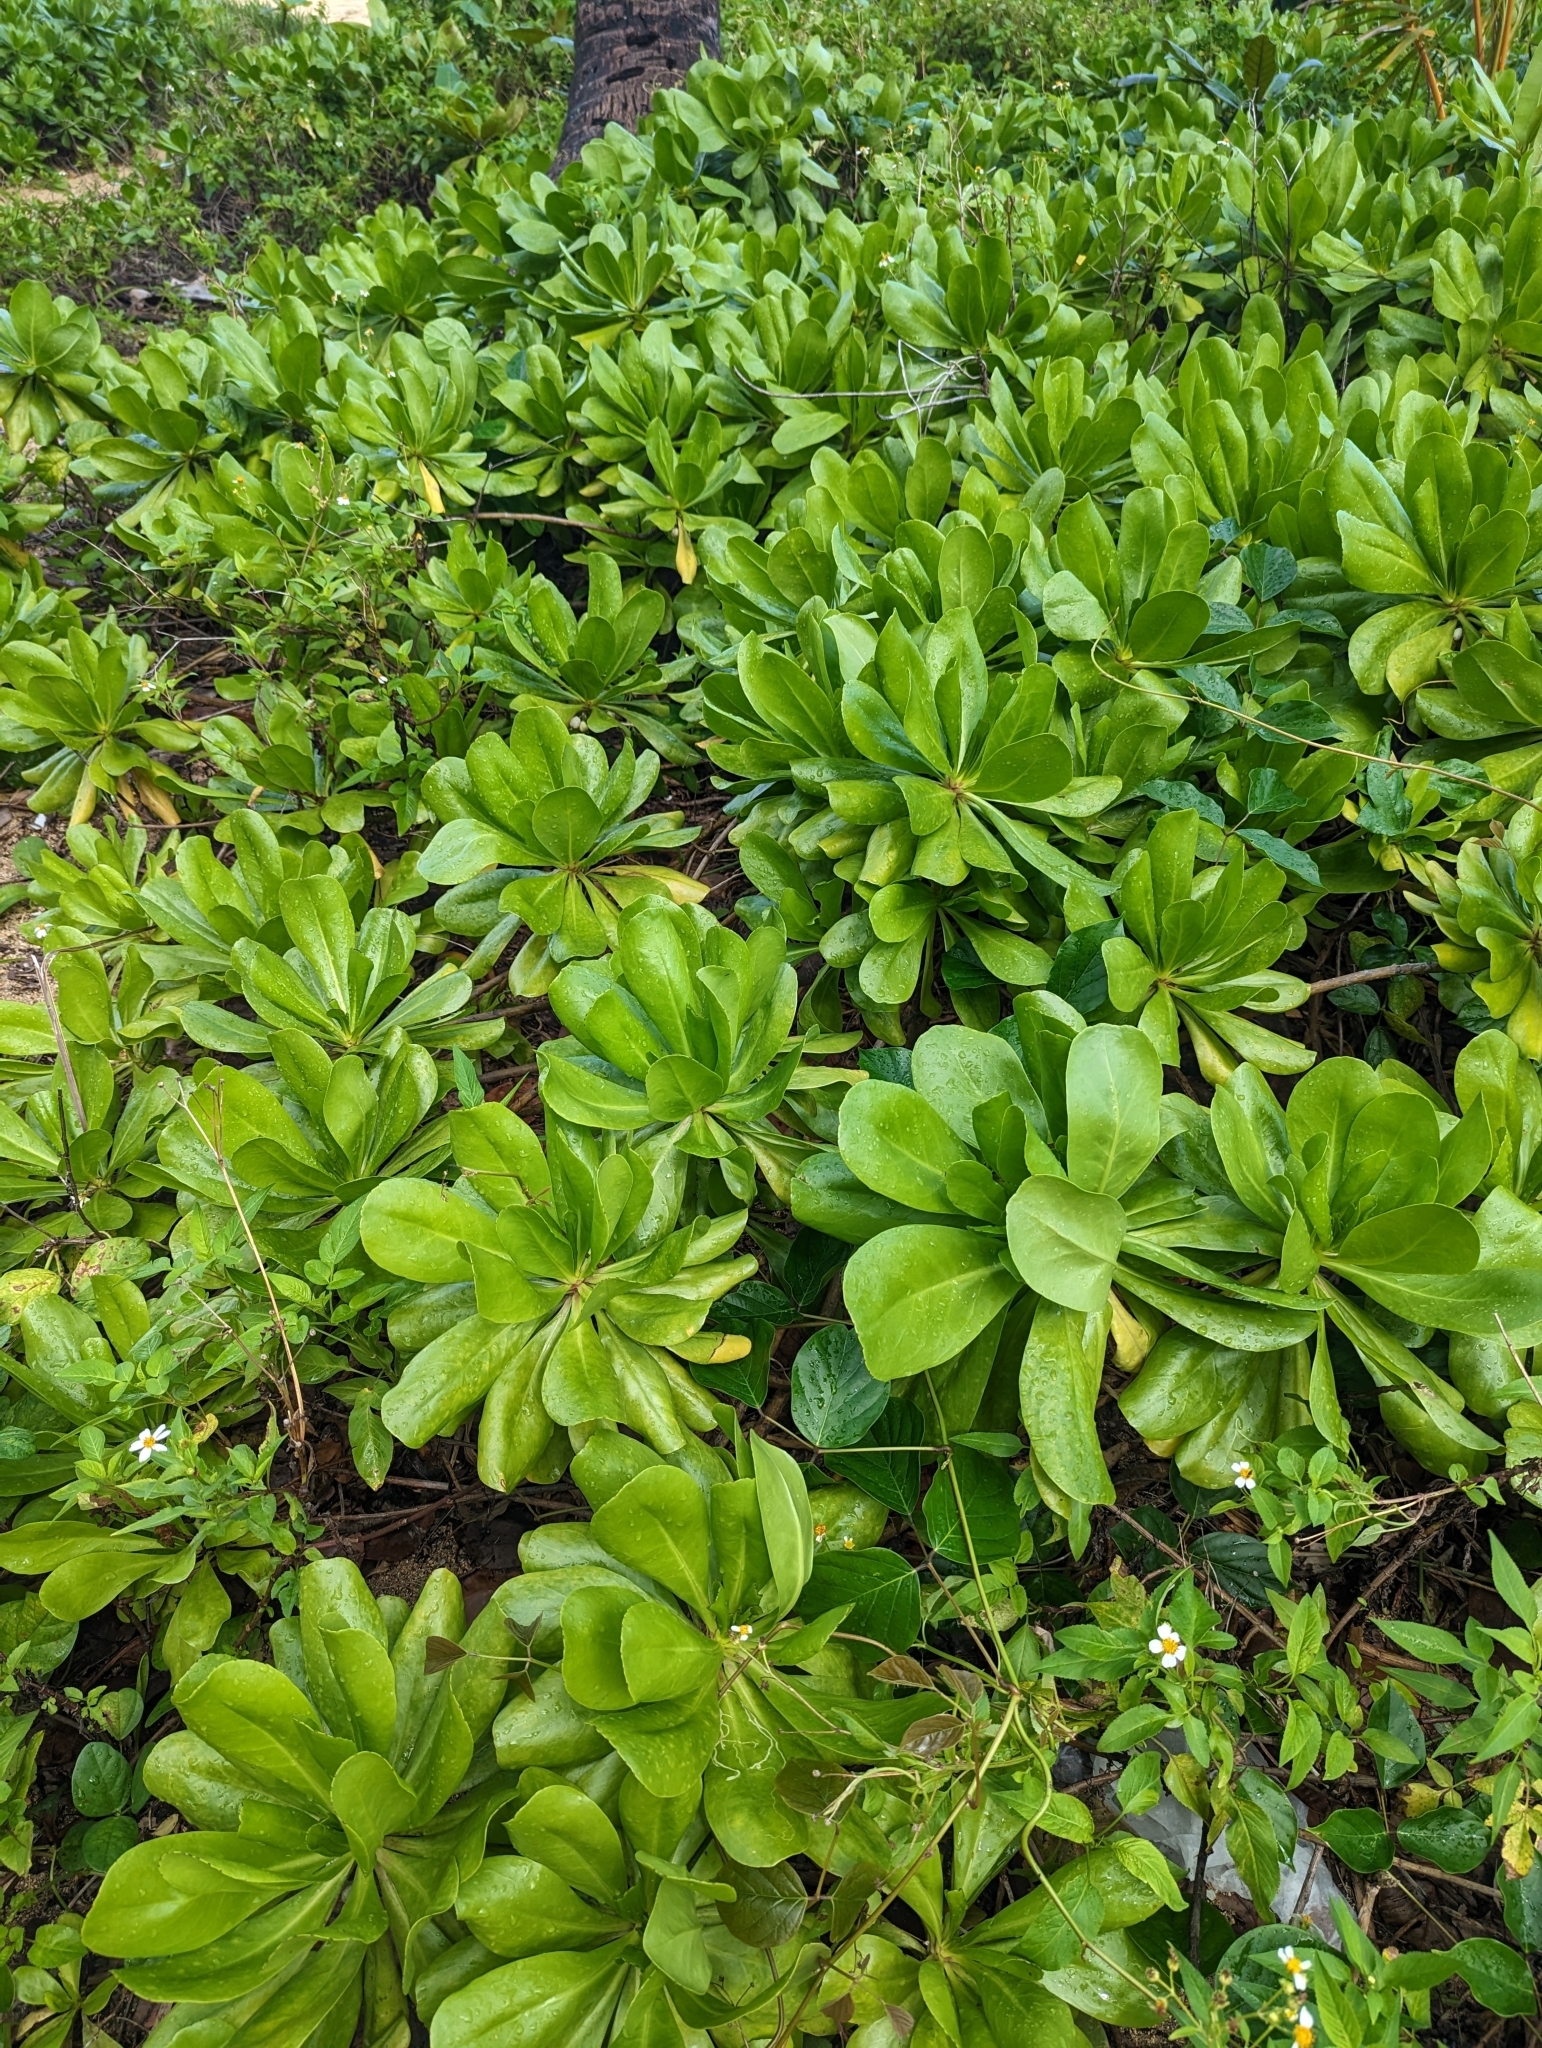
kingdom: Plantae
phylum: Tracheophyta
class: Magnoliopsida
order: Asterales
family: Goodeniaceae
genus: Scaevola
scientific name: Scaevola taccada
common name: Sea lettucetree
